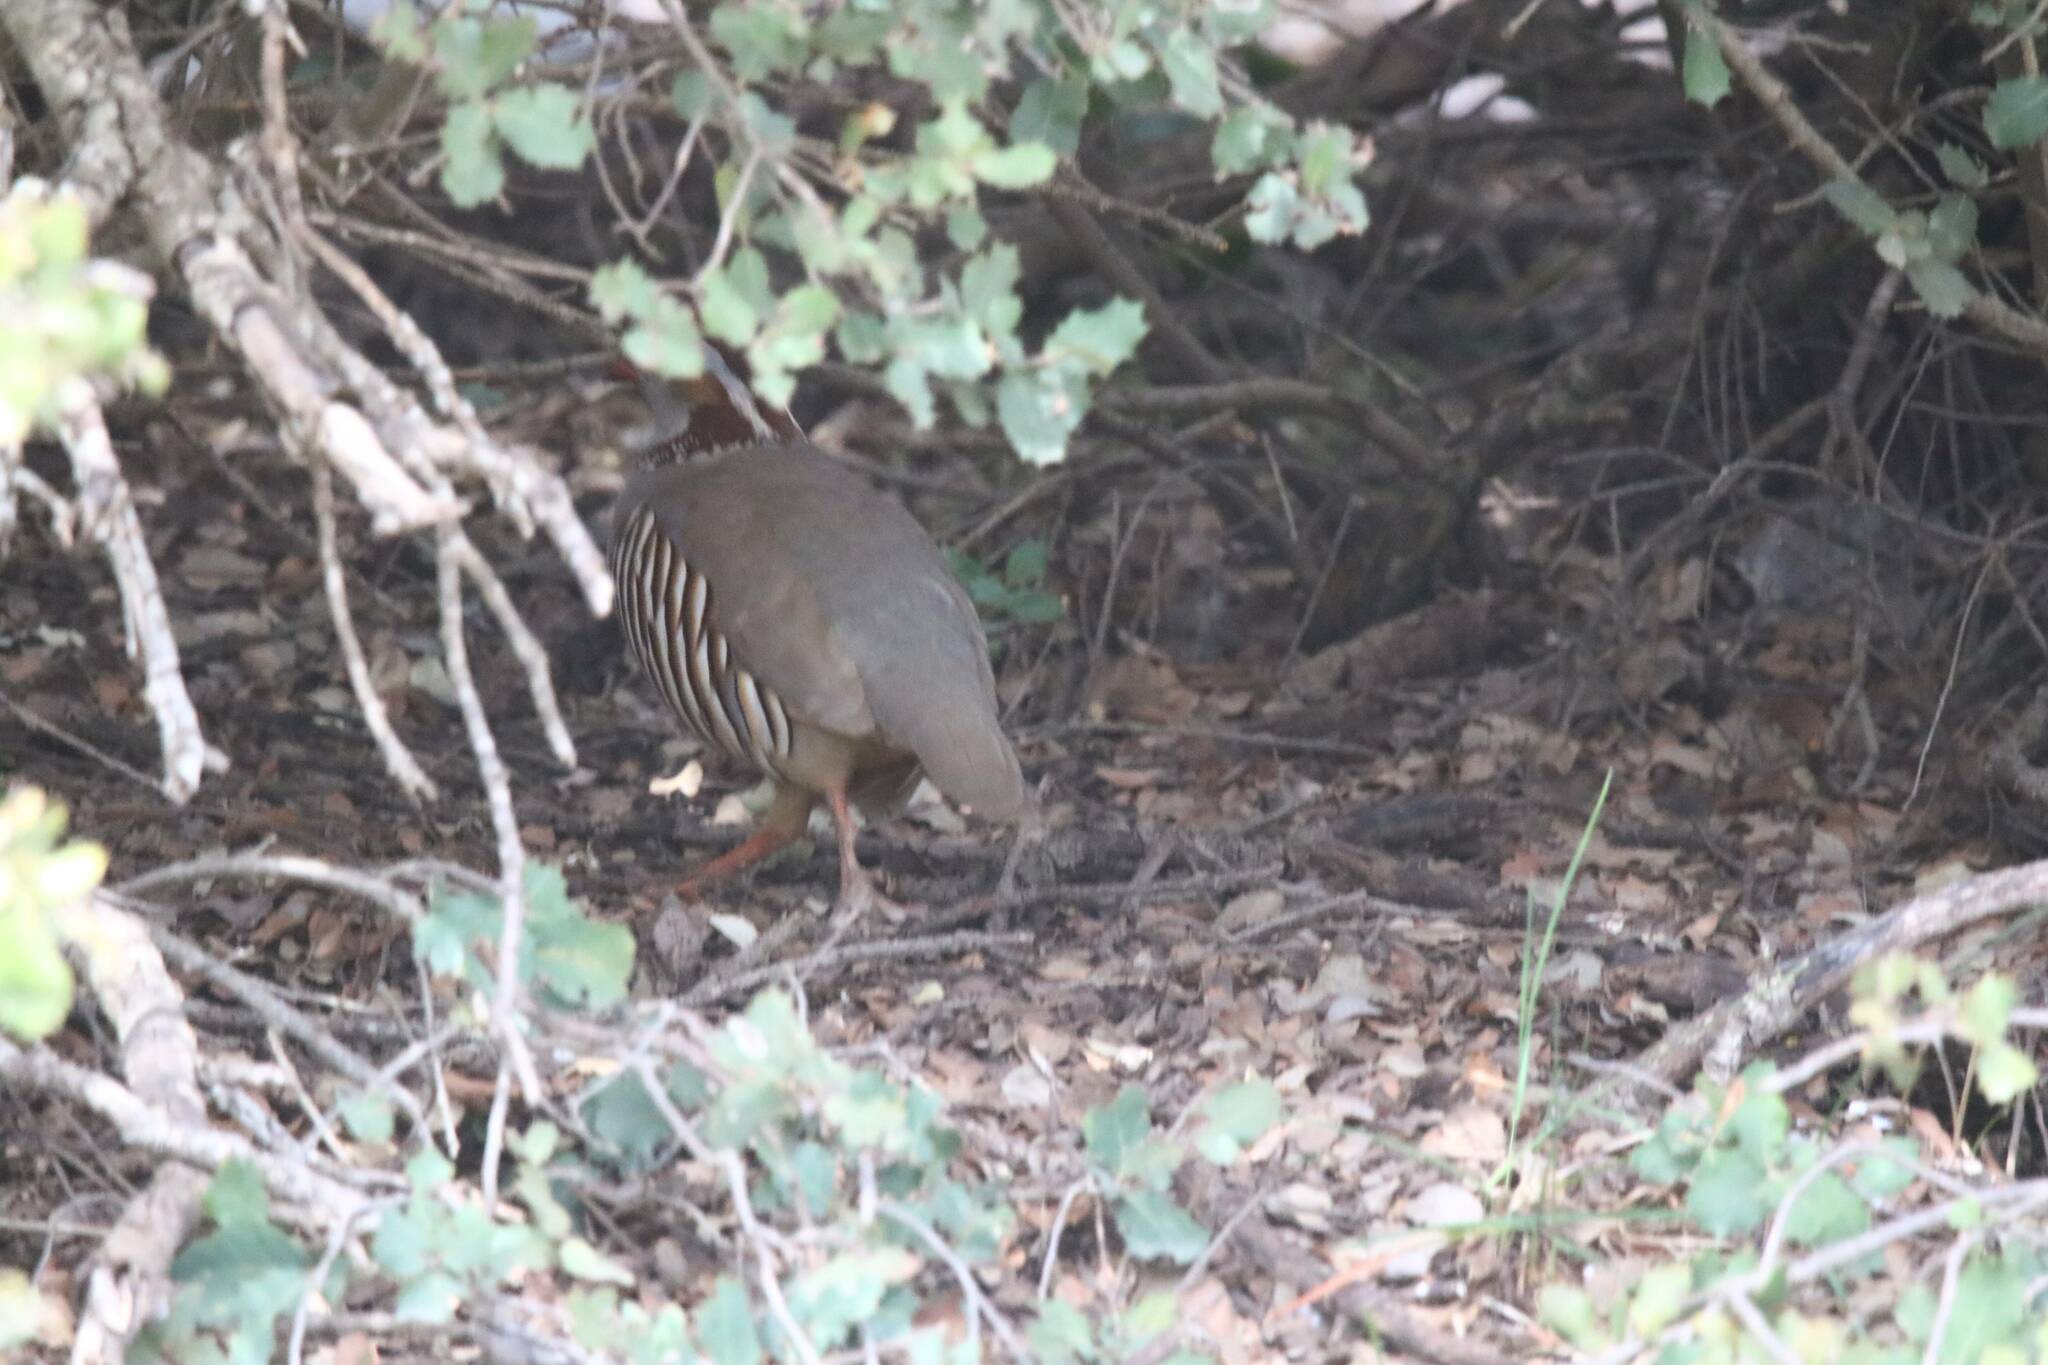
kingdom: Animalia
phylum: Chordata
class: Aves
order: Galliformes
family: Phasianidae
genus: Alectoris
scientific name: Alectoris barbara
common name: Barbary partridge
